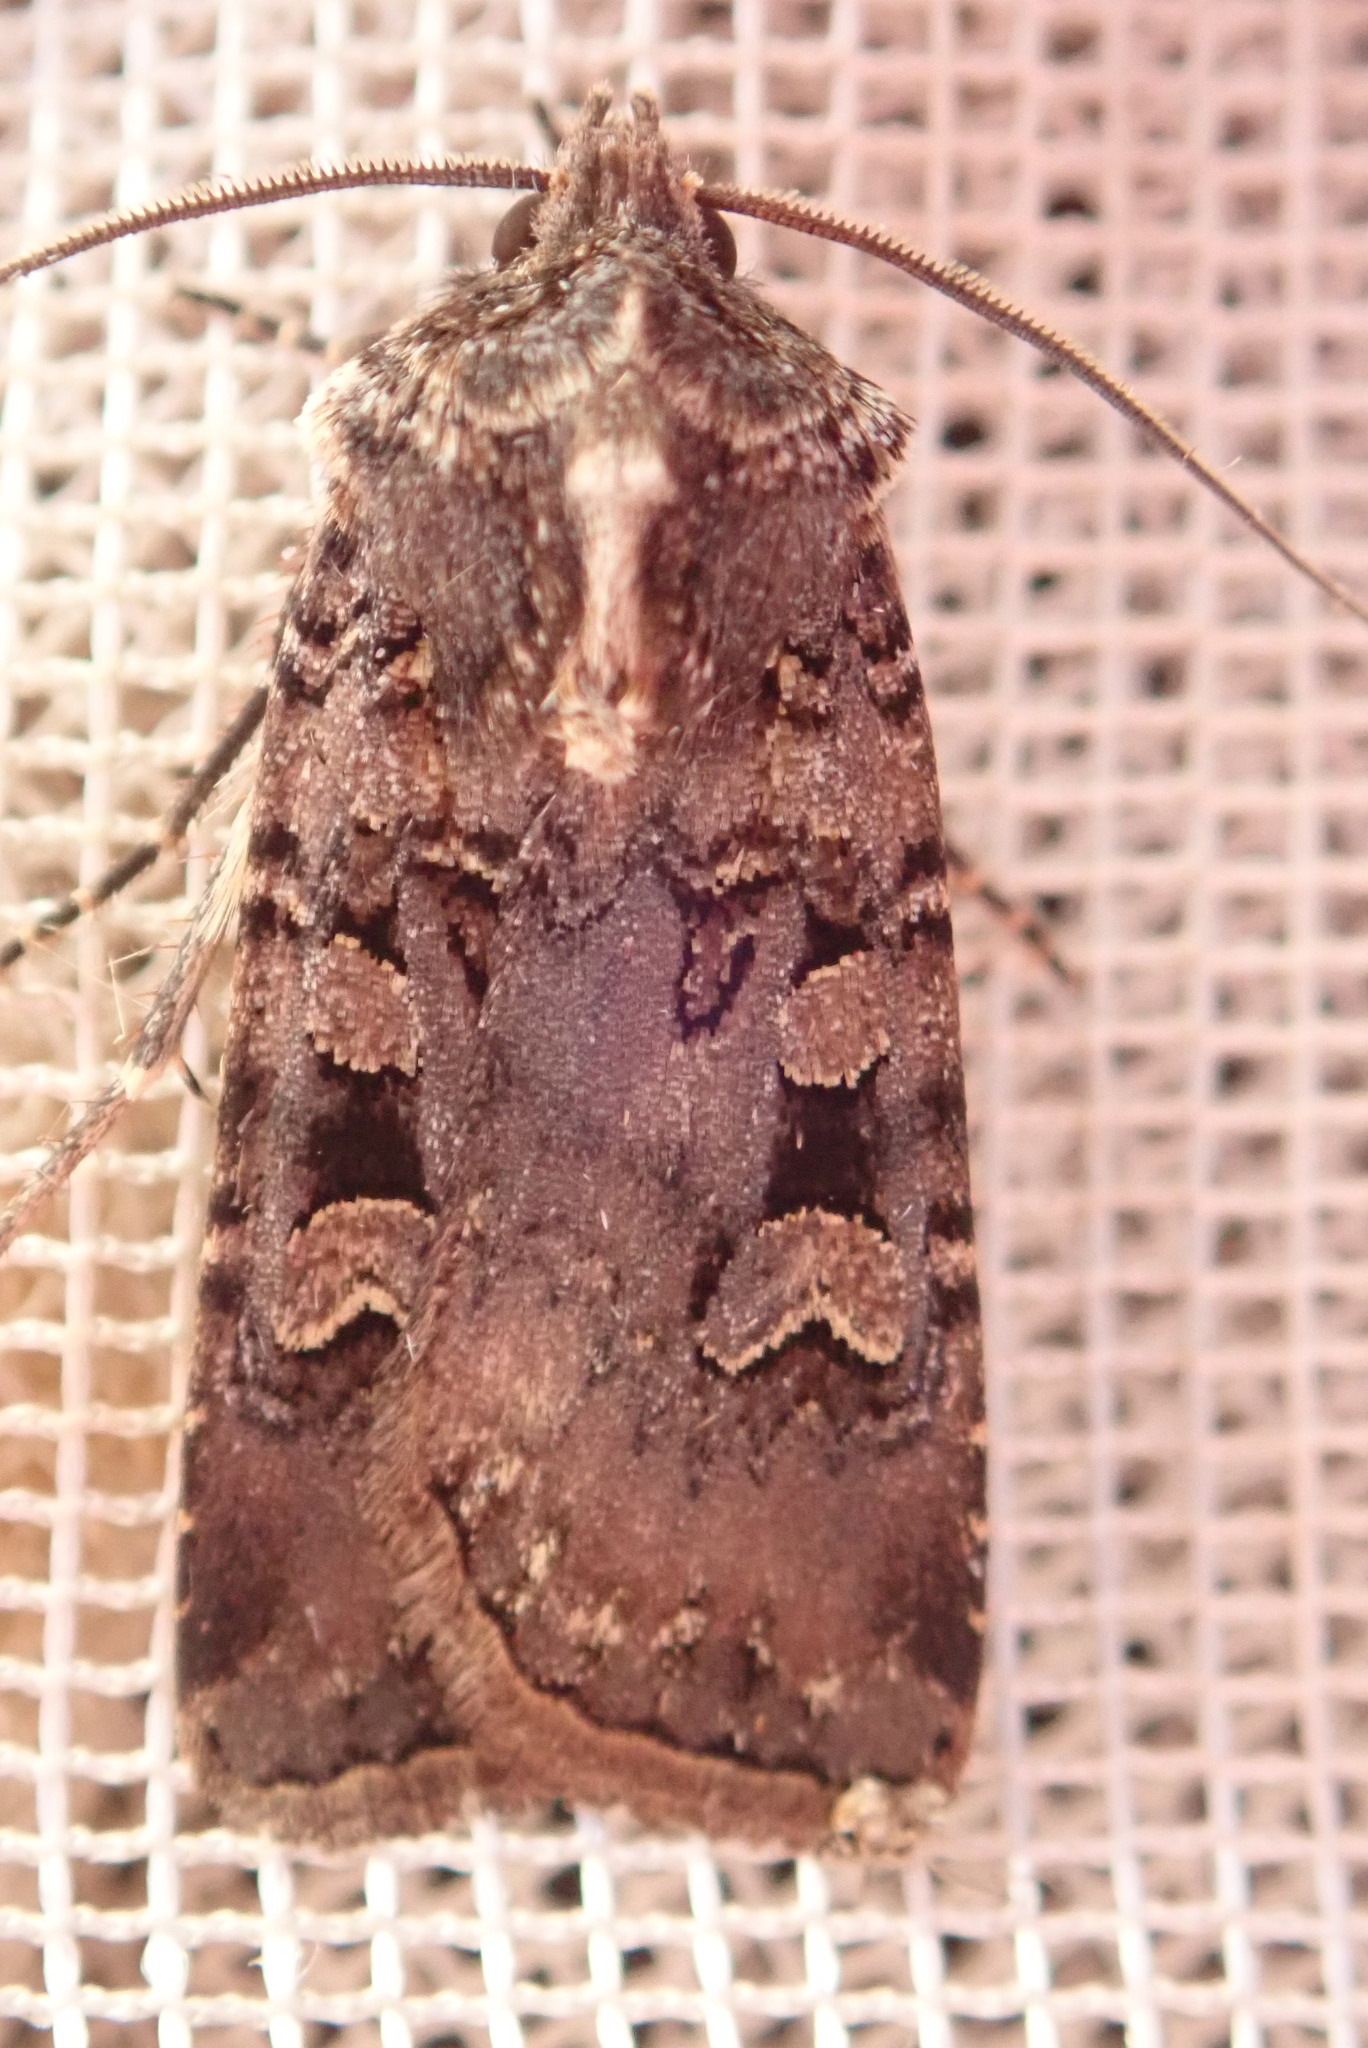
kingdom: Animalia
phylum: Arthropoda
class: Insecta
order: Lepidoptera
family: Noctuidae
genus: Euxoa
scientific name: Euxoa tessellata
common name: Striped cutworm
